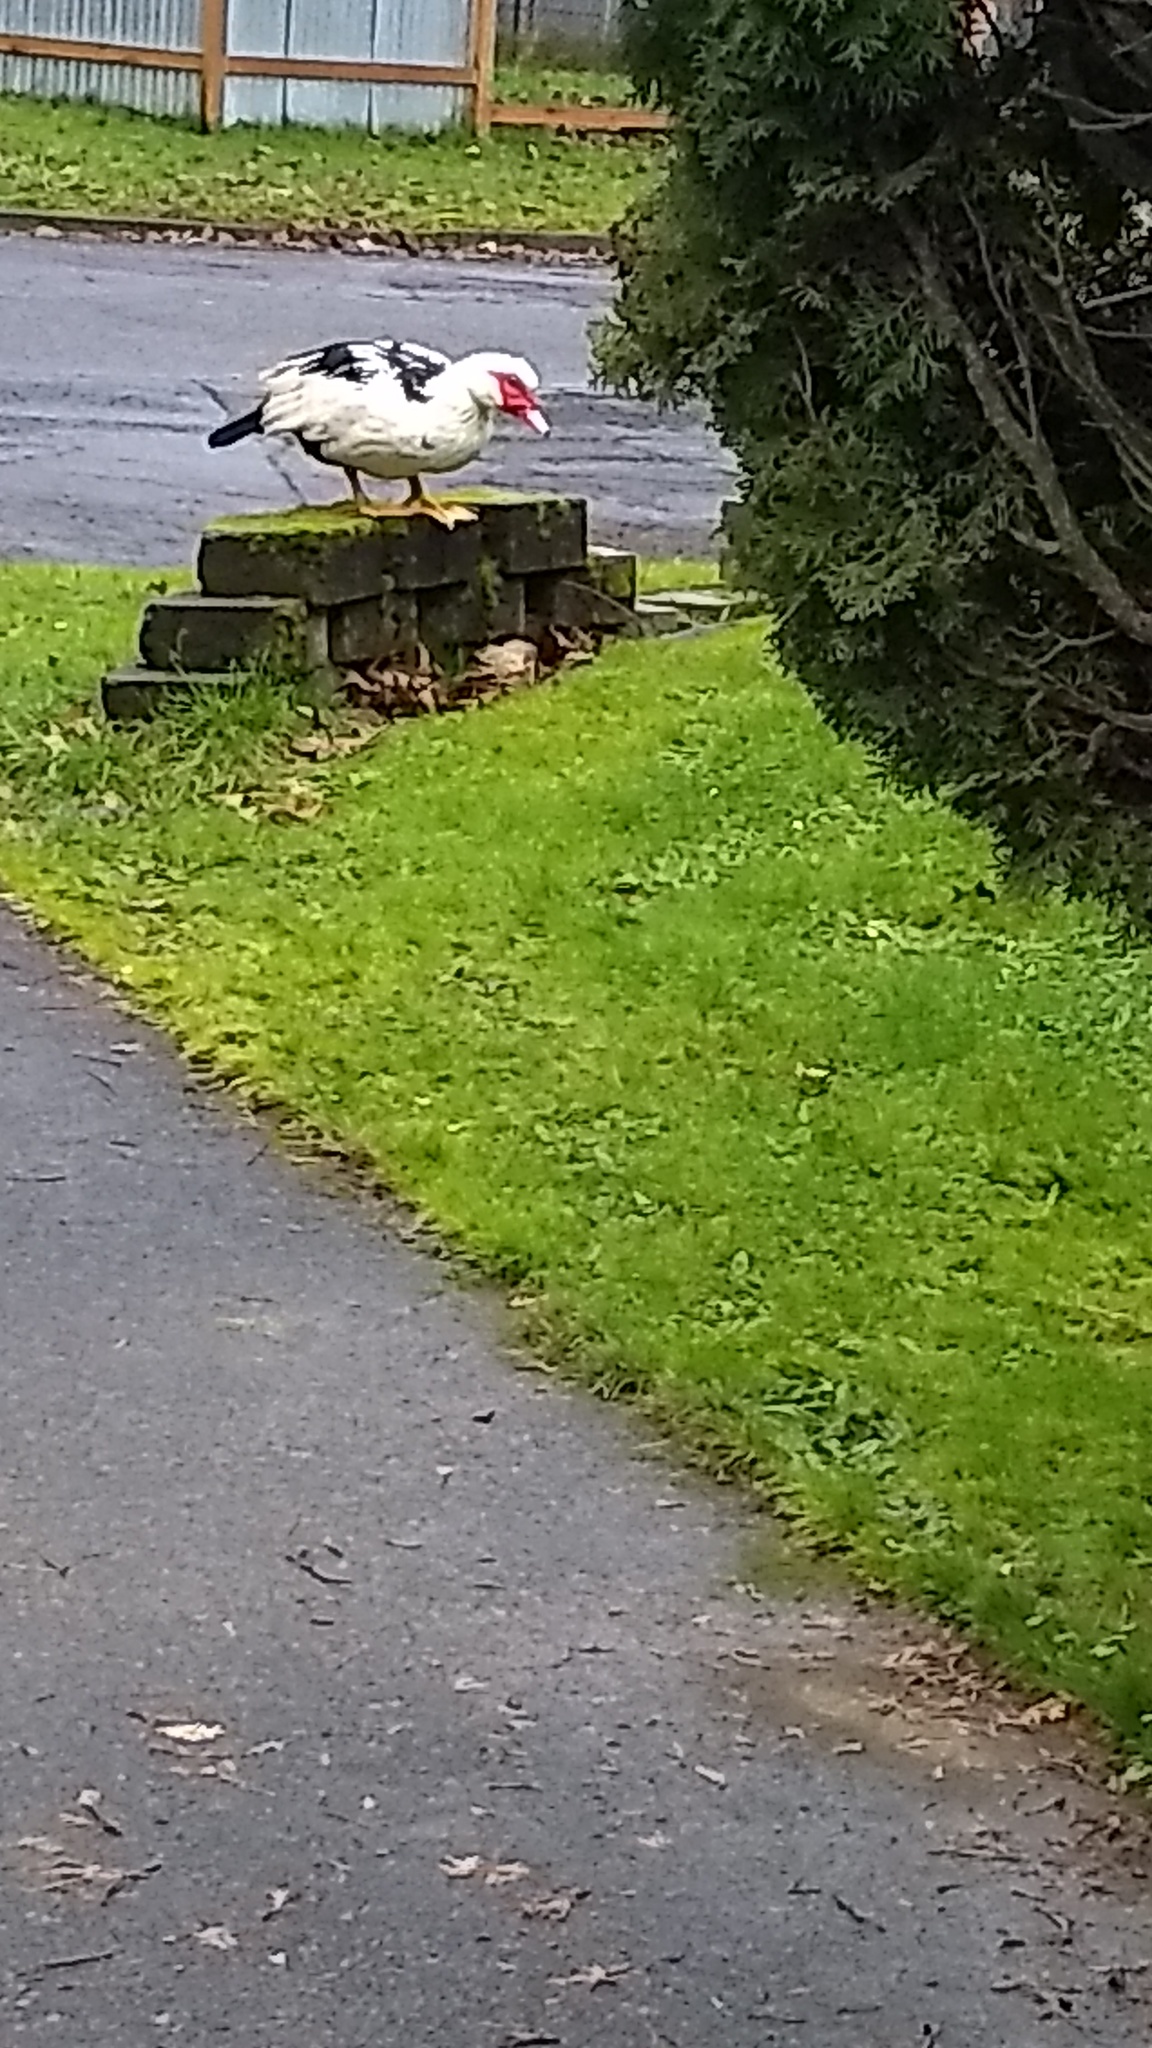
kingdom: Animalia
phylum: Chordata
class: Aves
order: Anseriformes
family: Anatidae
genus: Cairina
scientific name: Cairina moschata
